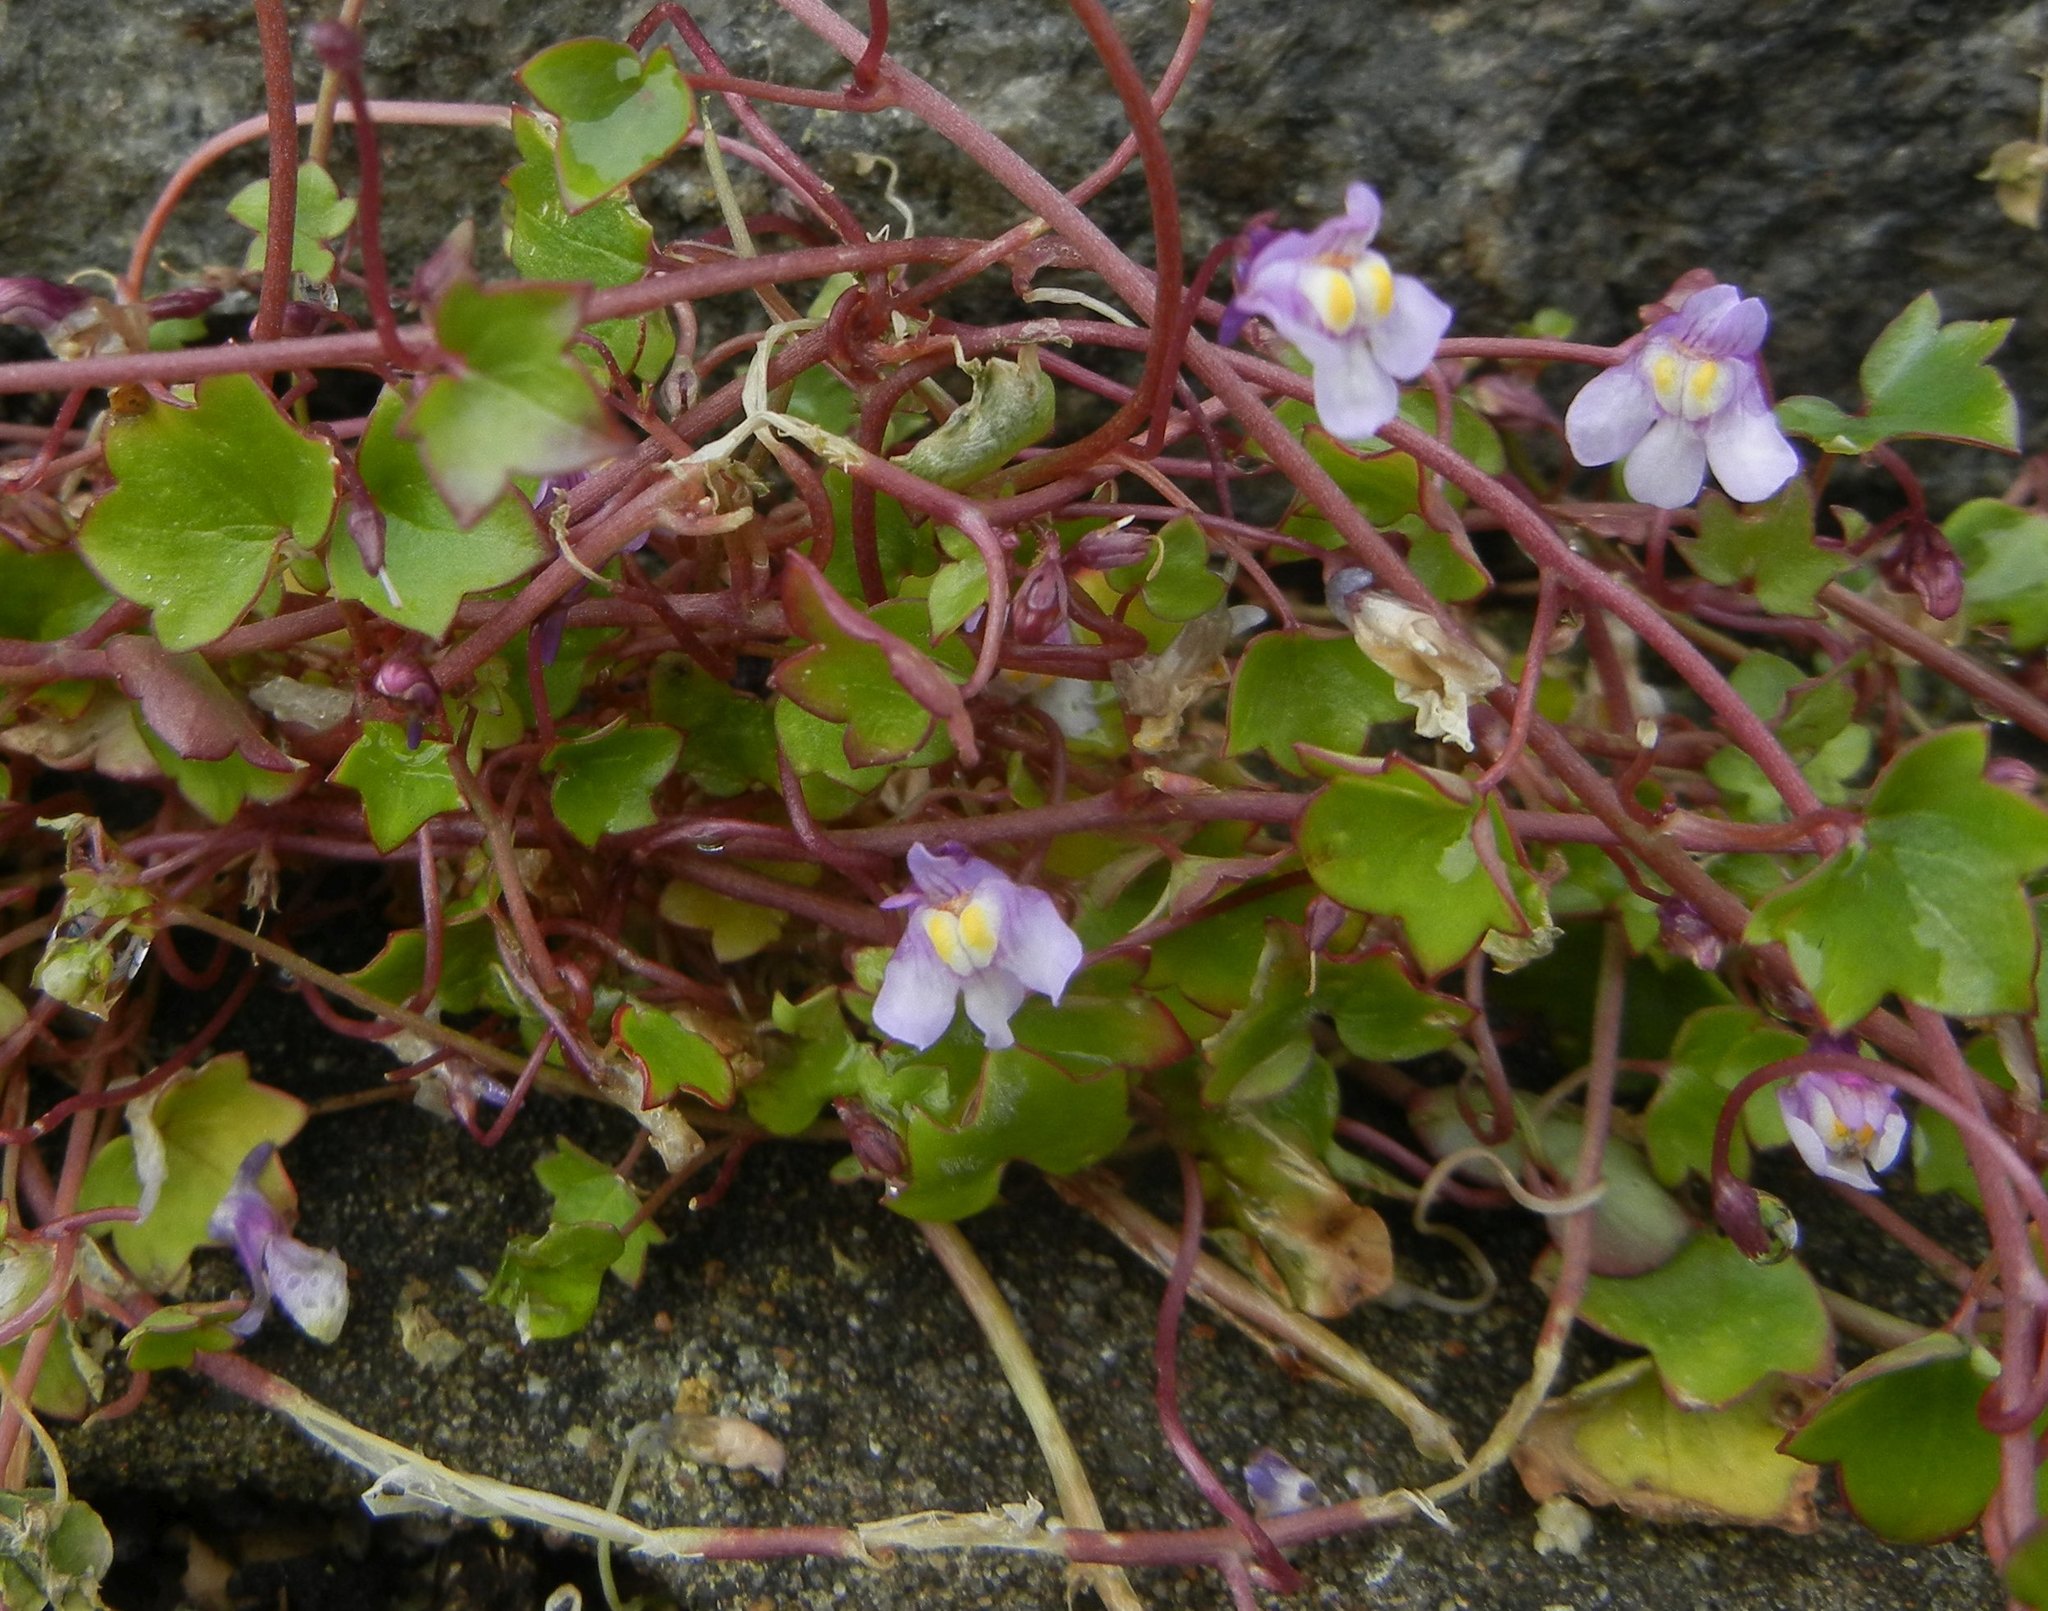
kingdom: Plantae
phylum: Tracheophyta
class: Magnoliopsida
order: Lamiales
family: Plantaginaceae
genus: Cymbalaria
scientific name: Cymbalaria muralis
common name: Ivy-leaved toadflax
